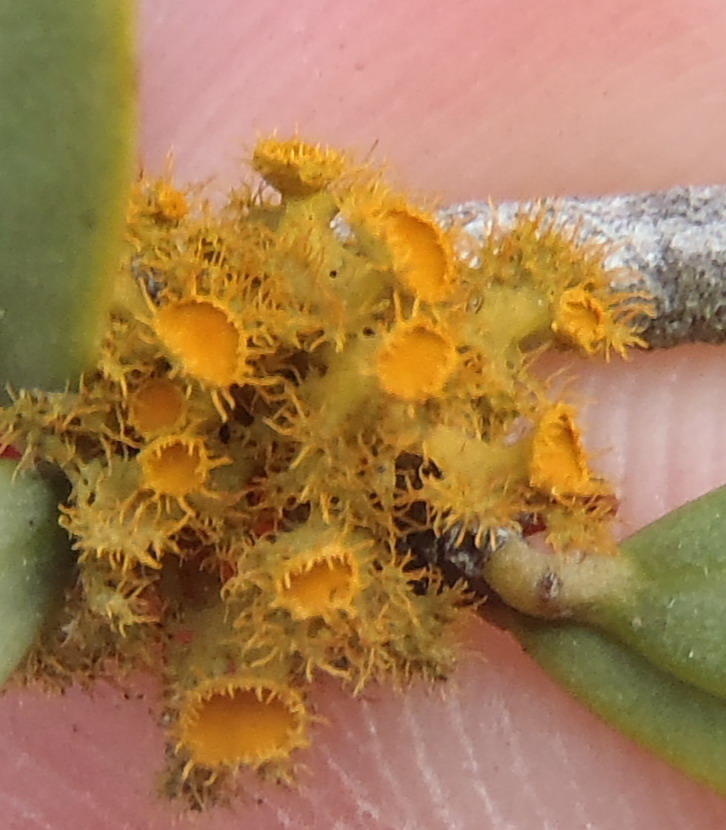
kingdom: Fungi
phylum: Ascomycota
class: Lecanoromycetes
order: Teloschistales
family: Teloschistaceae
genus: Niorma
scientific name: Niorma chrysophthalma
